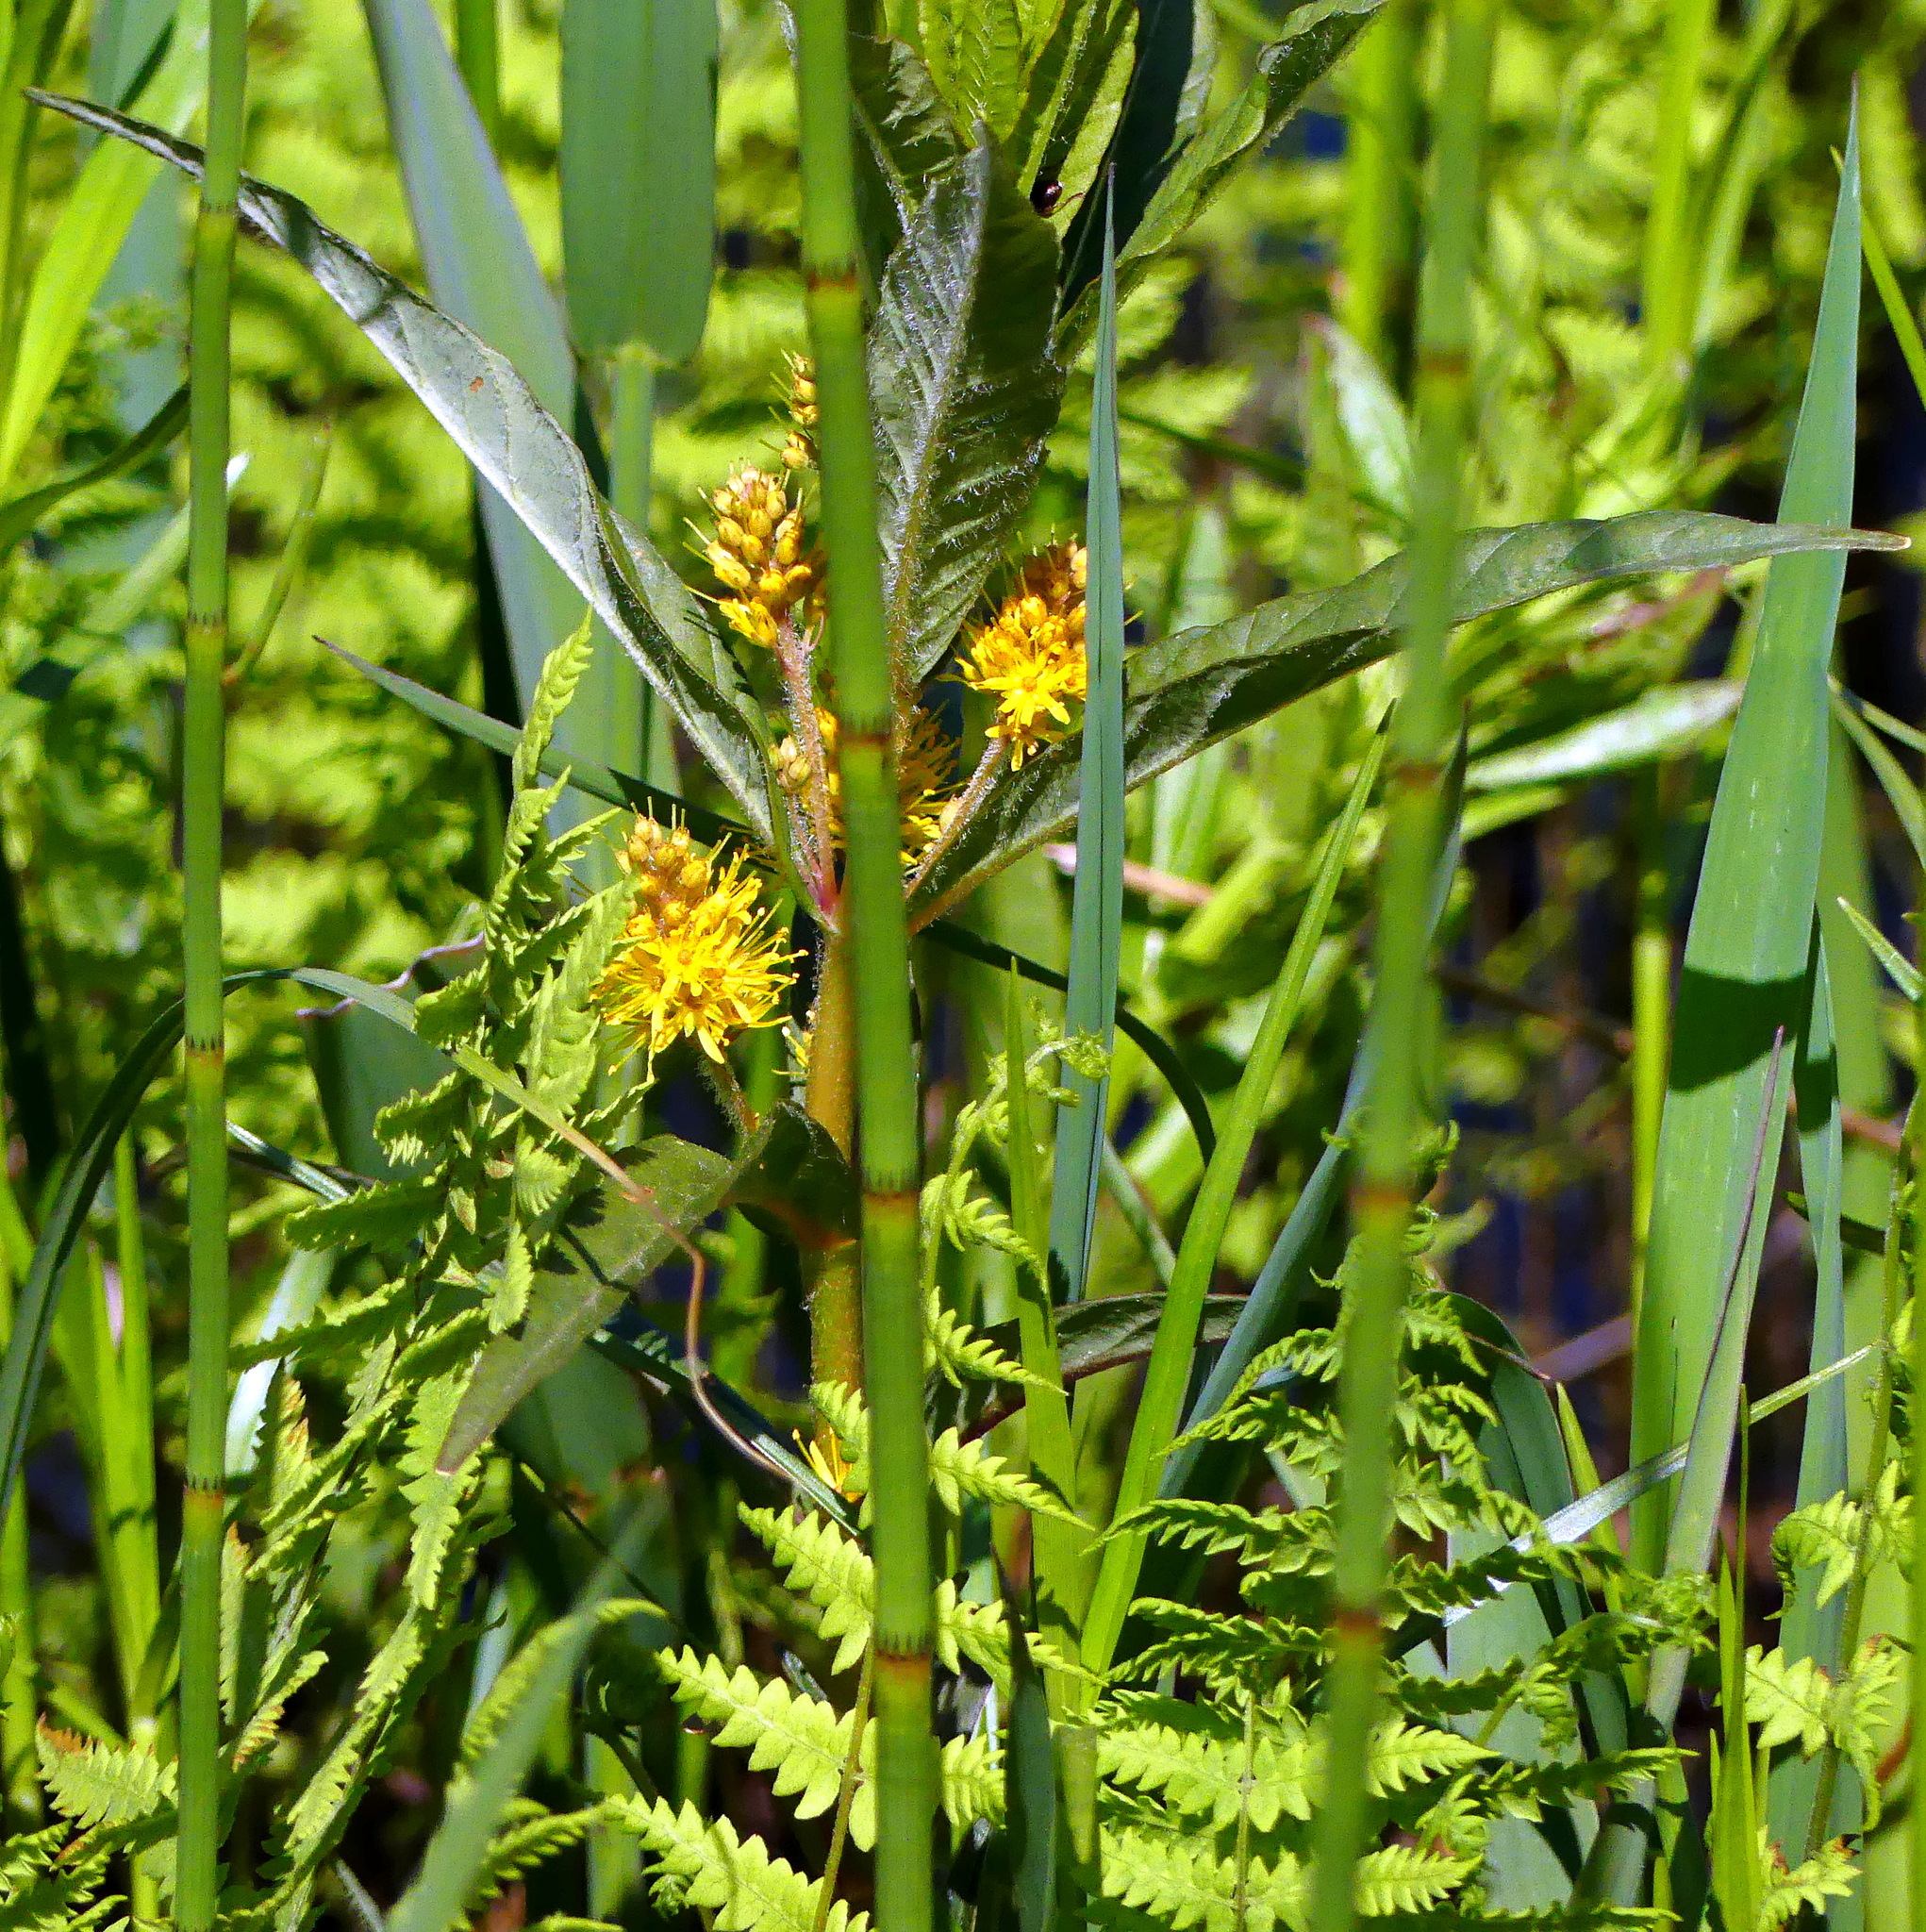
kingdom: Plantae
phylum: Tracheophyta
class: Magnoliopsida
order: Ericales
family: Primulaceae
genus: Lysimachia
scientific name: Lysimachia thyrsiflora
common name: Tufted loosestrife
